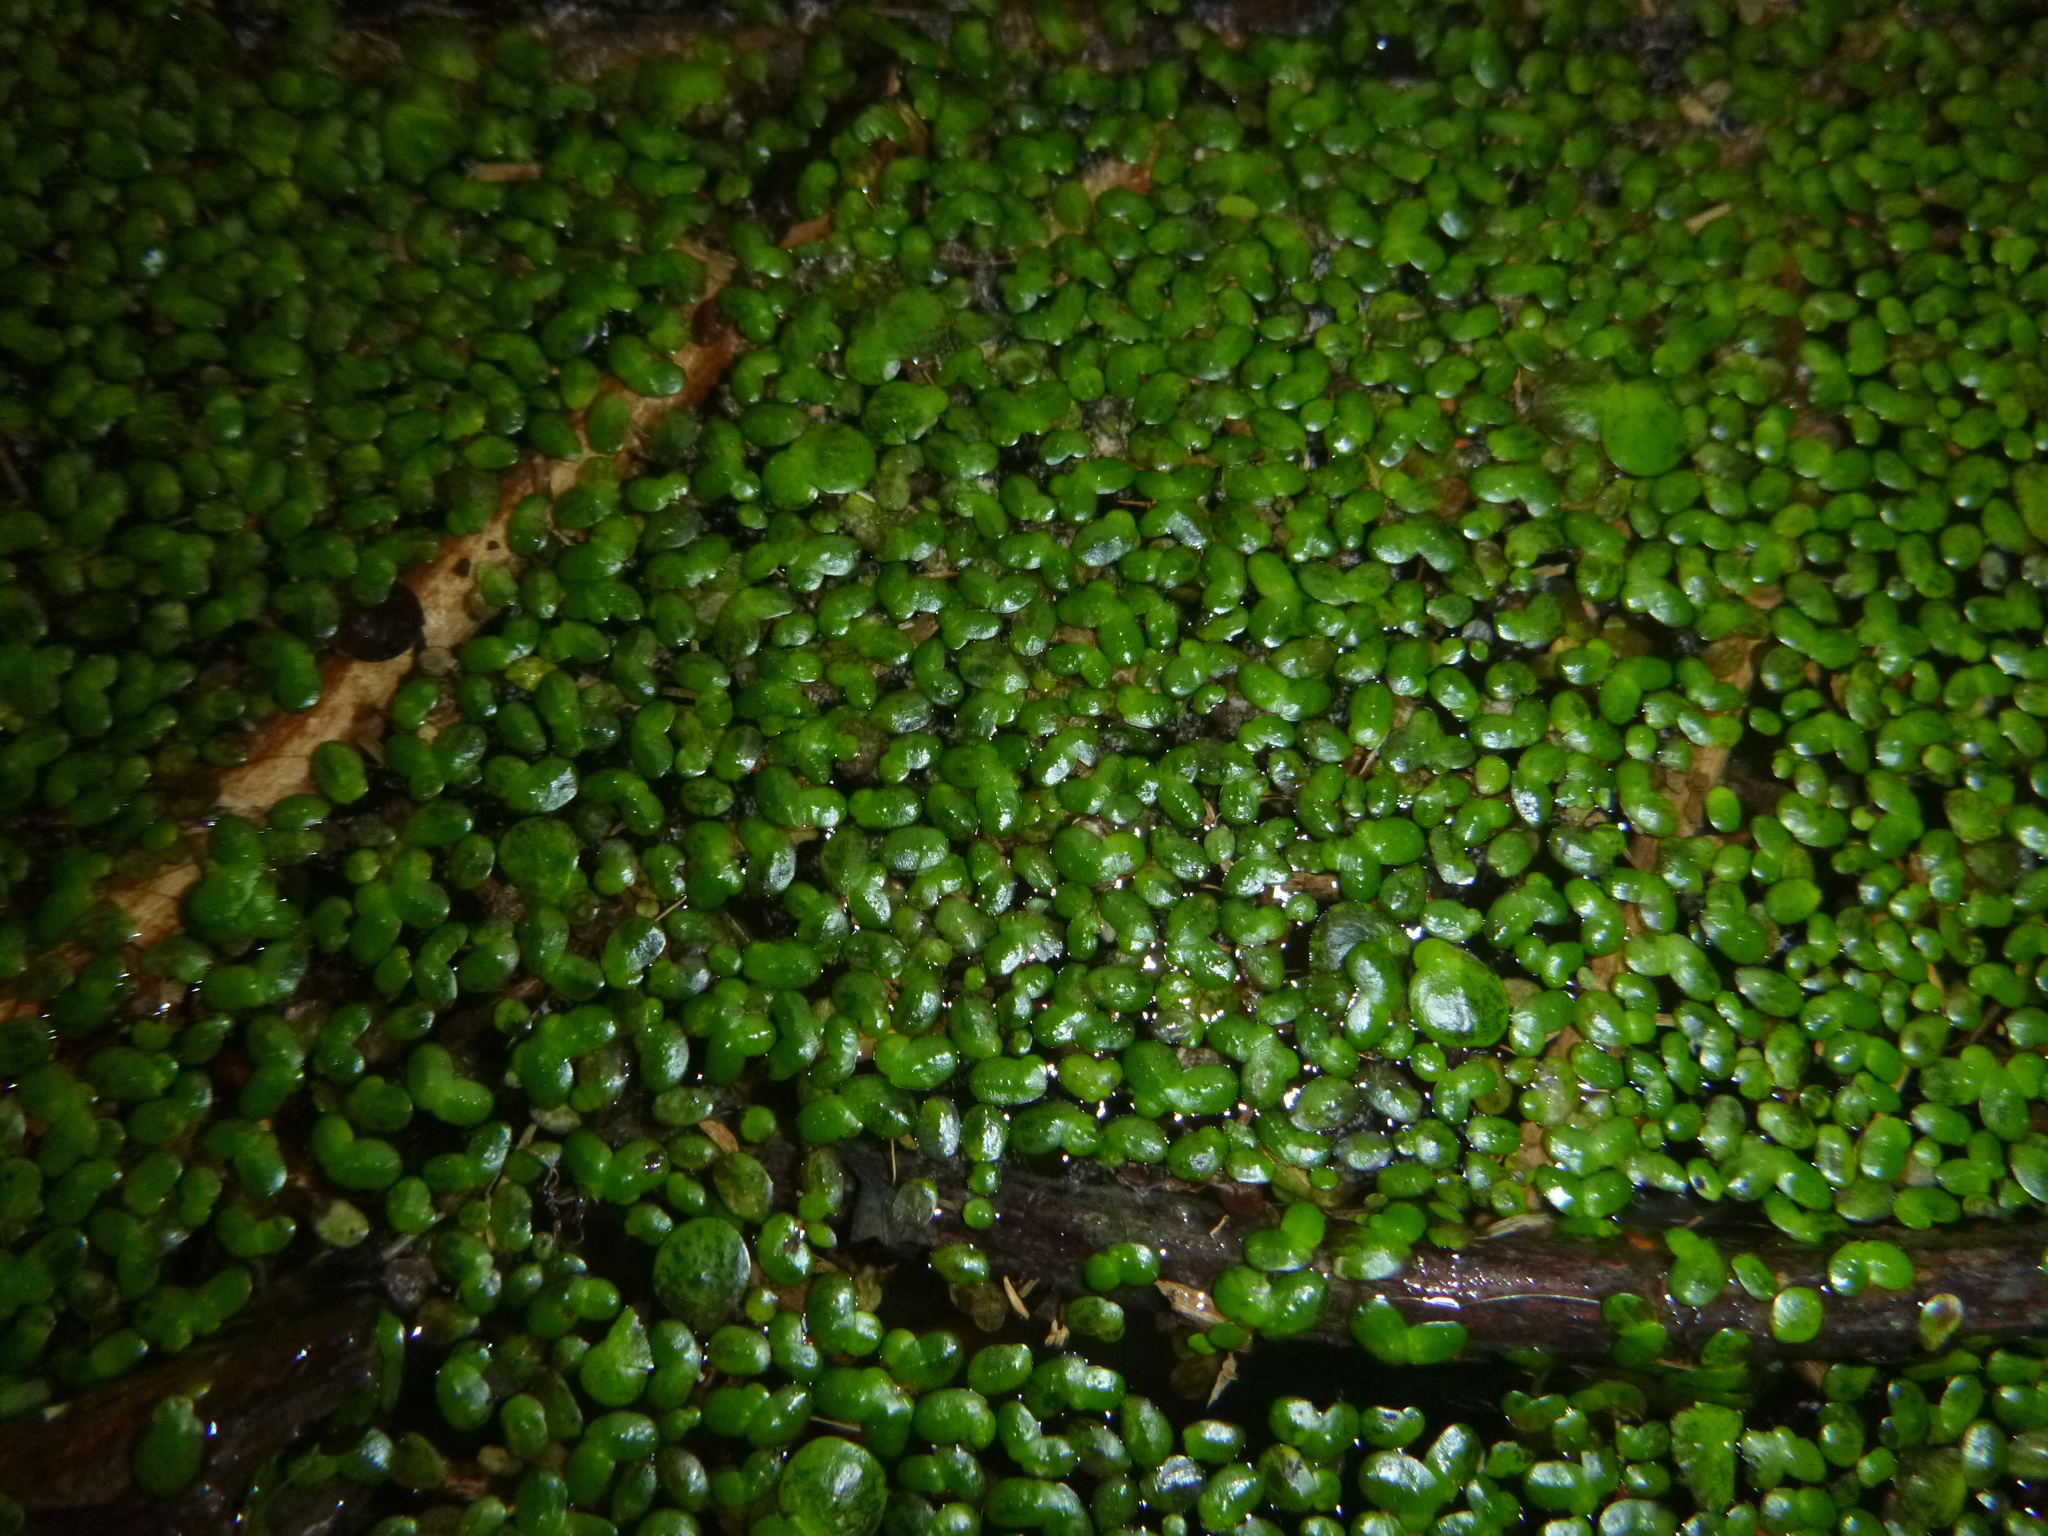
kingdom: Plantae
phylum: Tracheophyta
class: Liliopsida
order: Alismatales
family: Araceae
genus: Lemna
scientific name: Lemna minor
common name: Common duckweed
